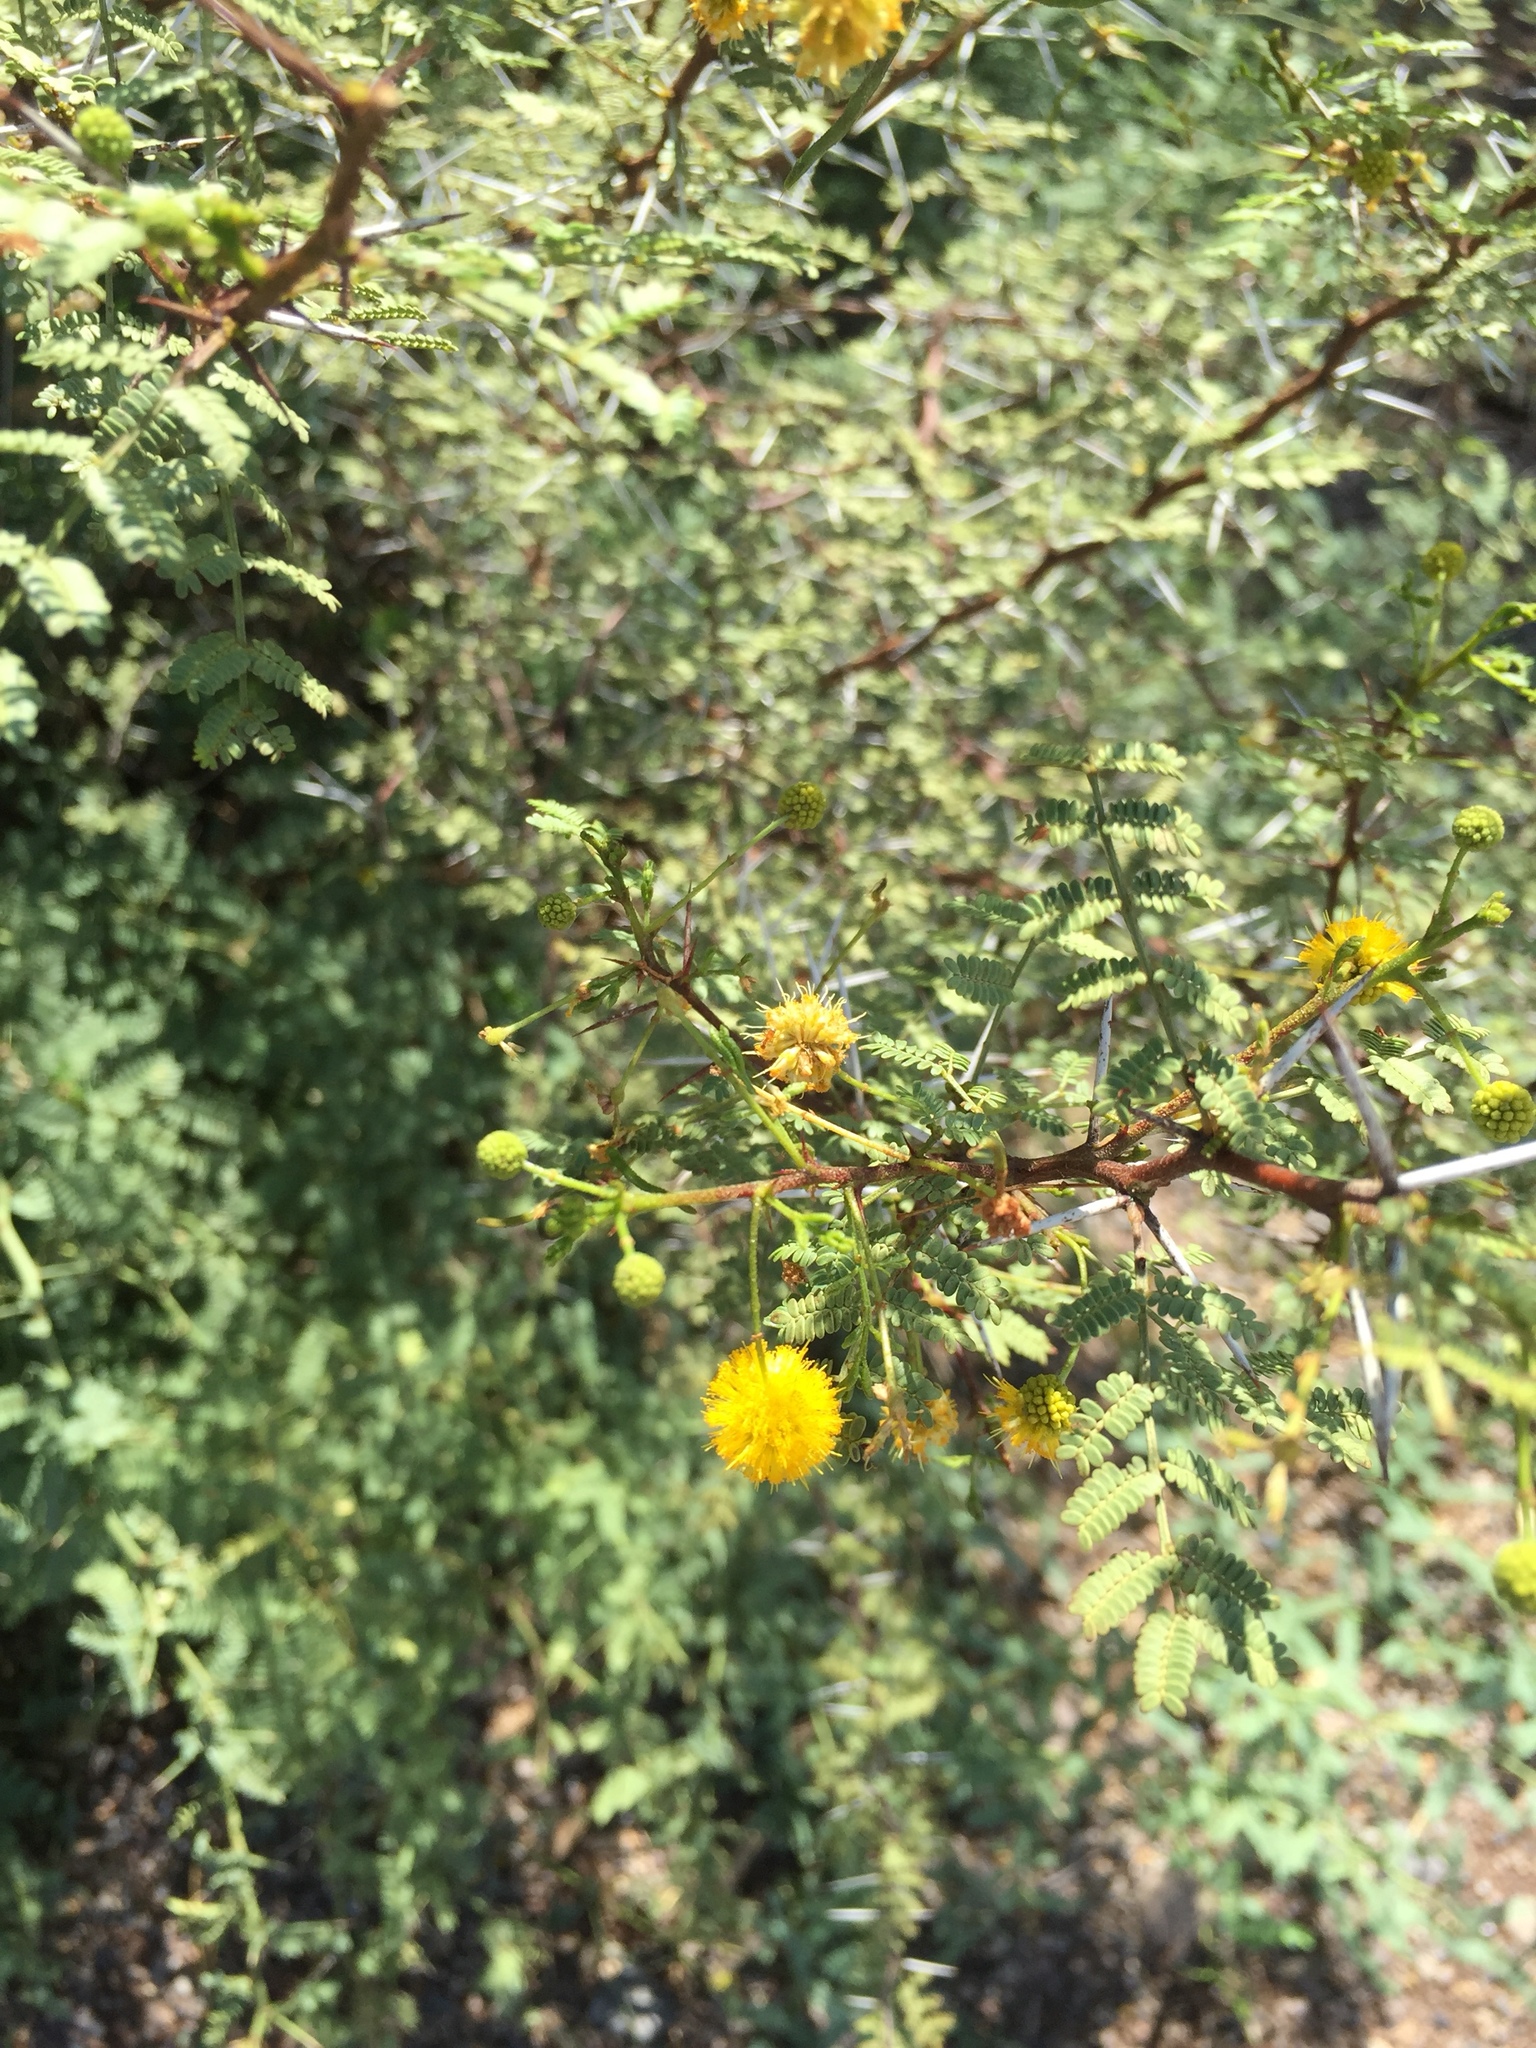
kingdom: Plantae
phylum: Tracheophyta
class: Magnoliopsida
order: Fabales
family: Fabaceae
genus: Vachellia
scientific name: Vachellia farnesiana
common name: Sweet acacia
